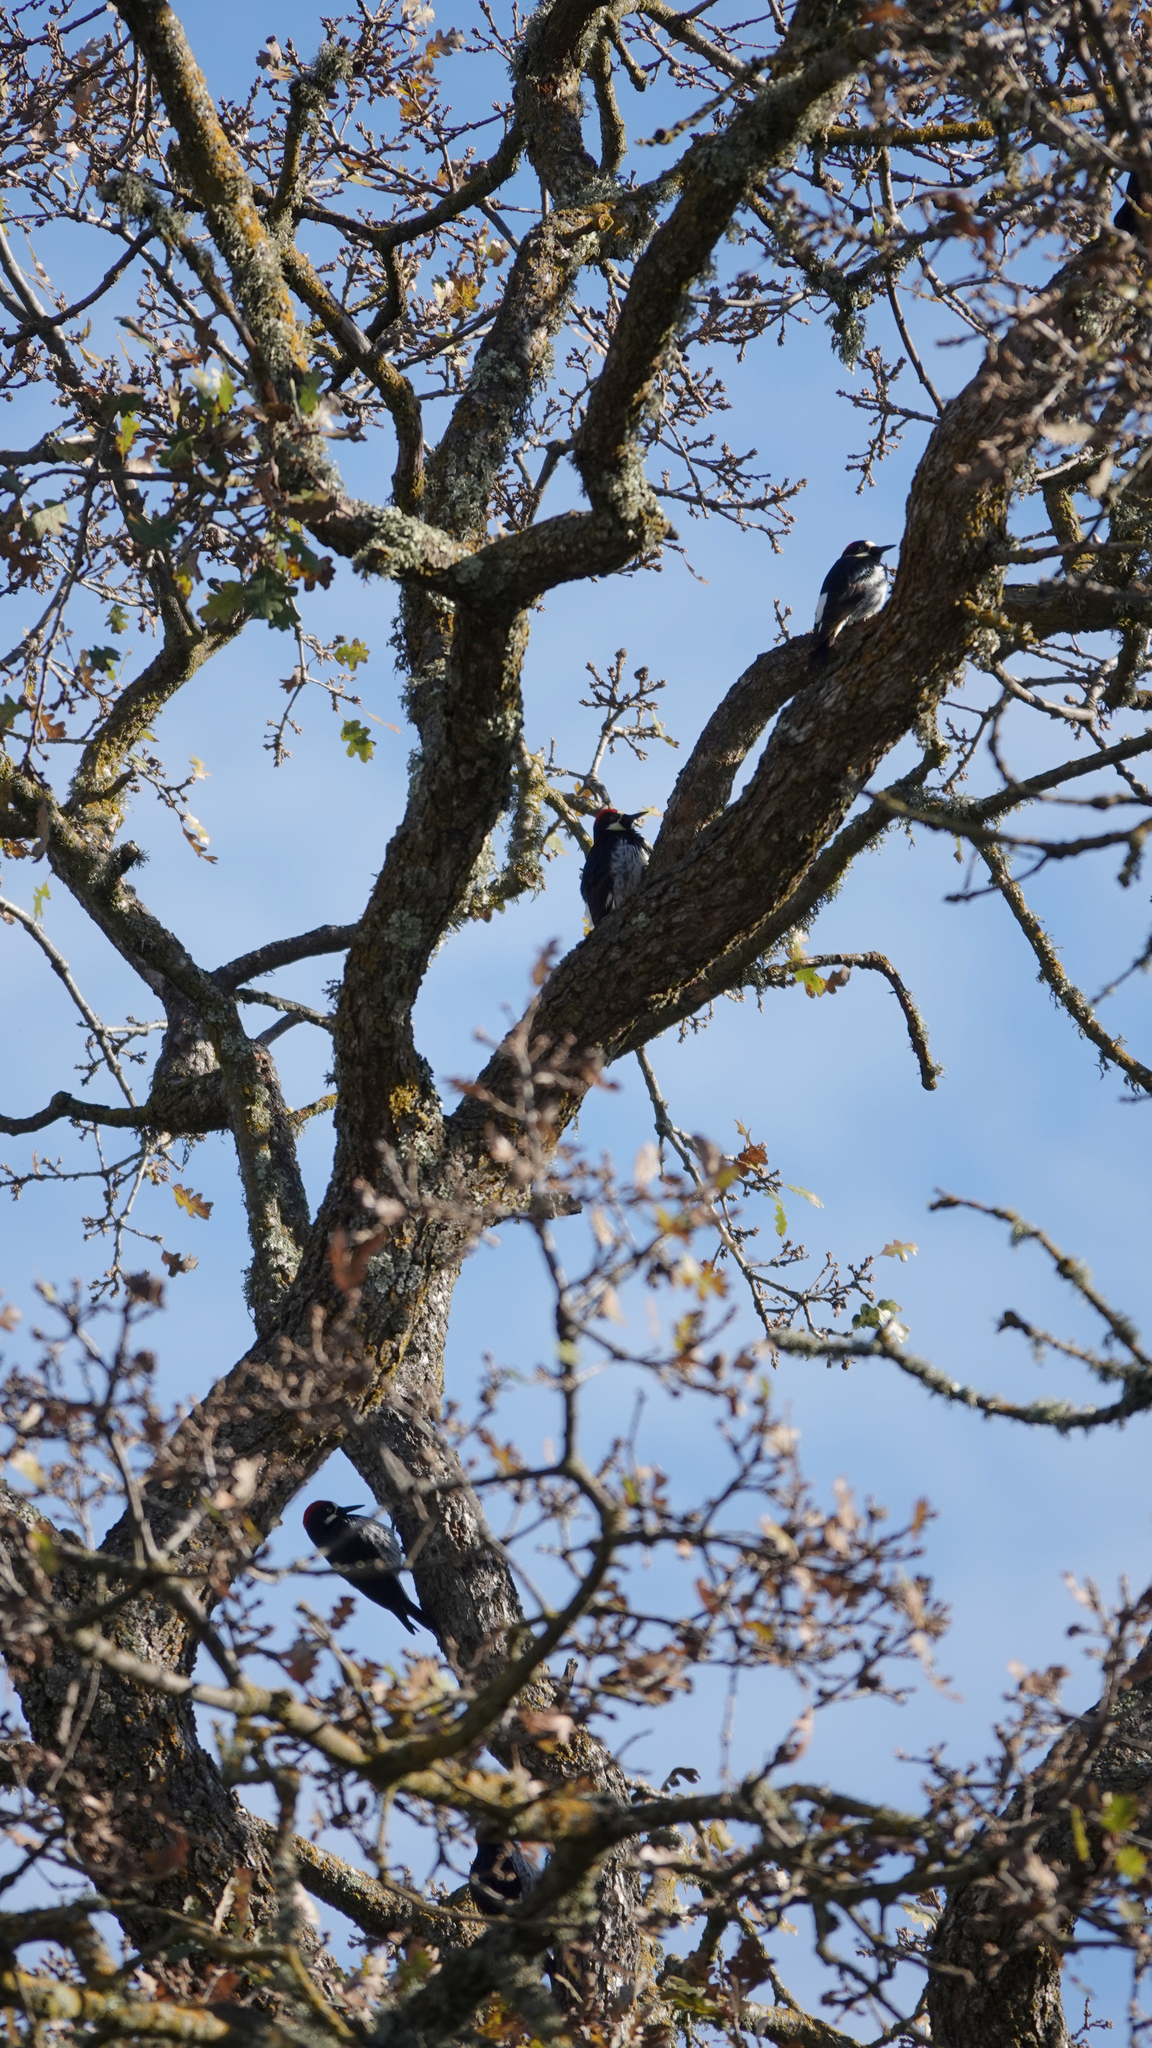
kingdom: Animalia
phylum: Chordata
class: Aves
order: Piciformes
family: Picidae
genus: Melanerpes
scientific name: Melanerpes formicivorus
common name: Acorn woodpecker
